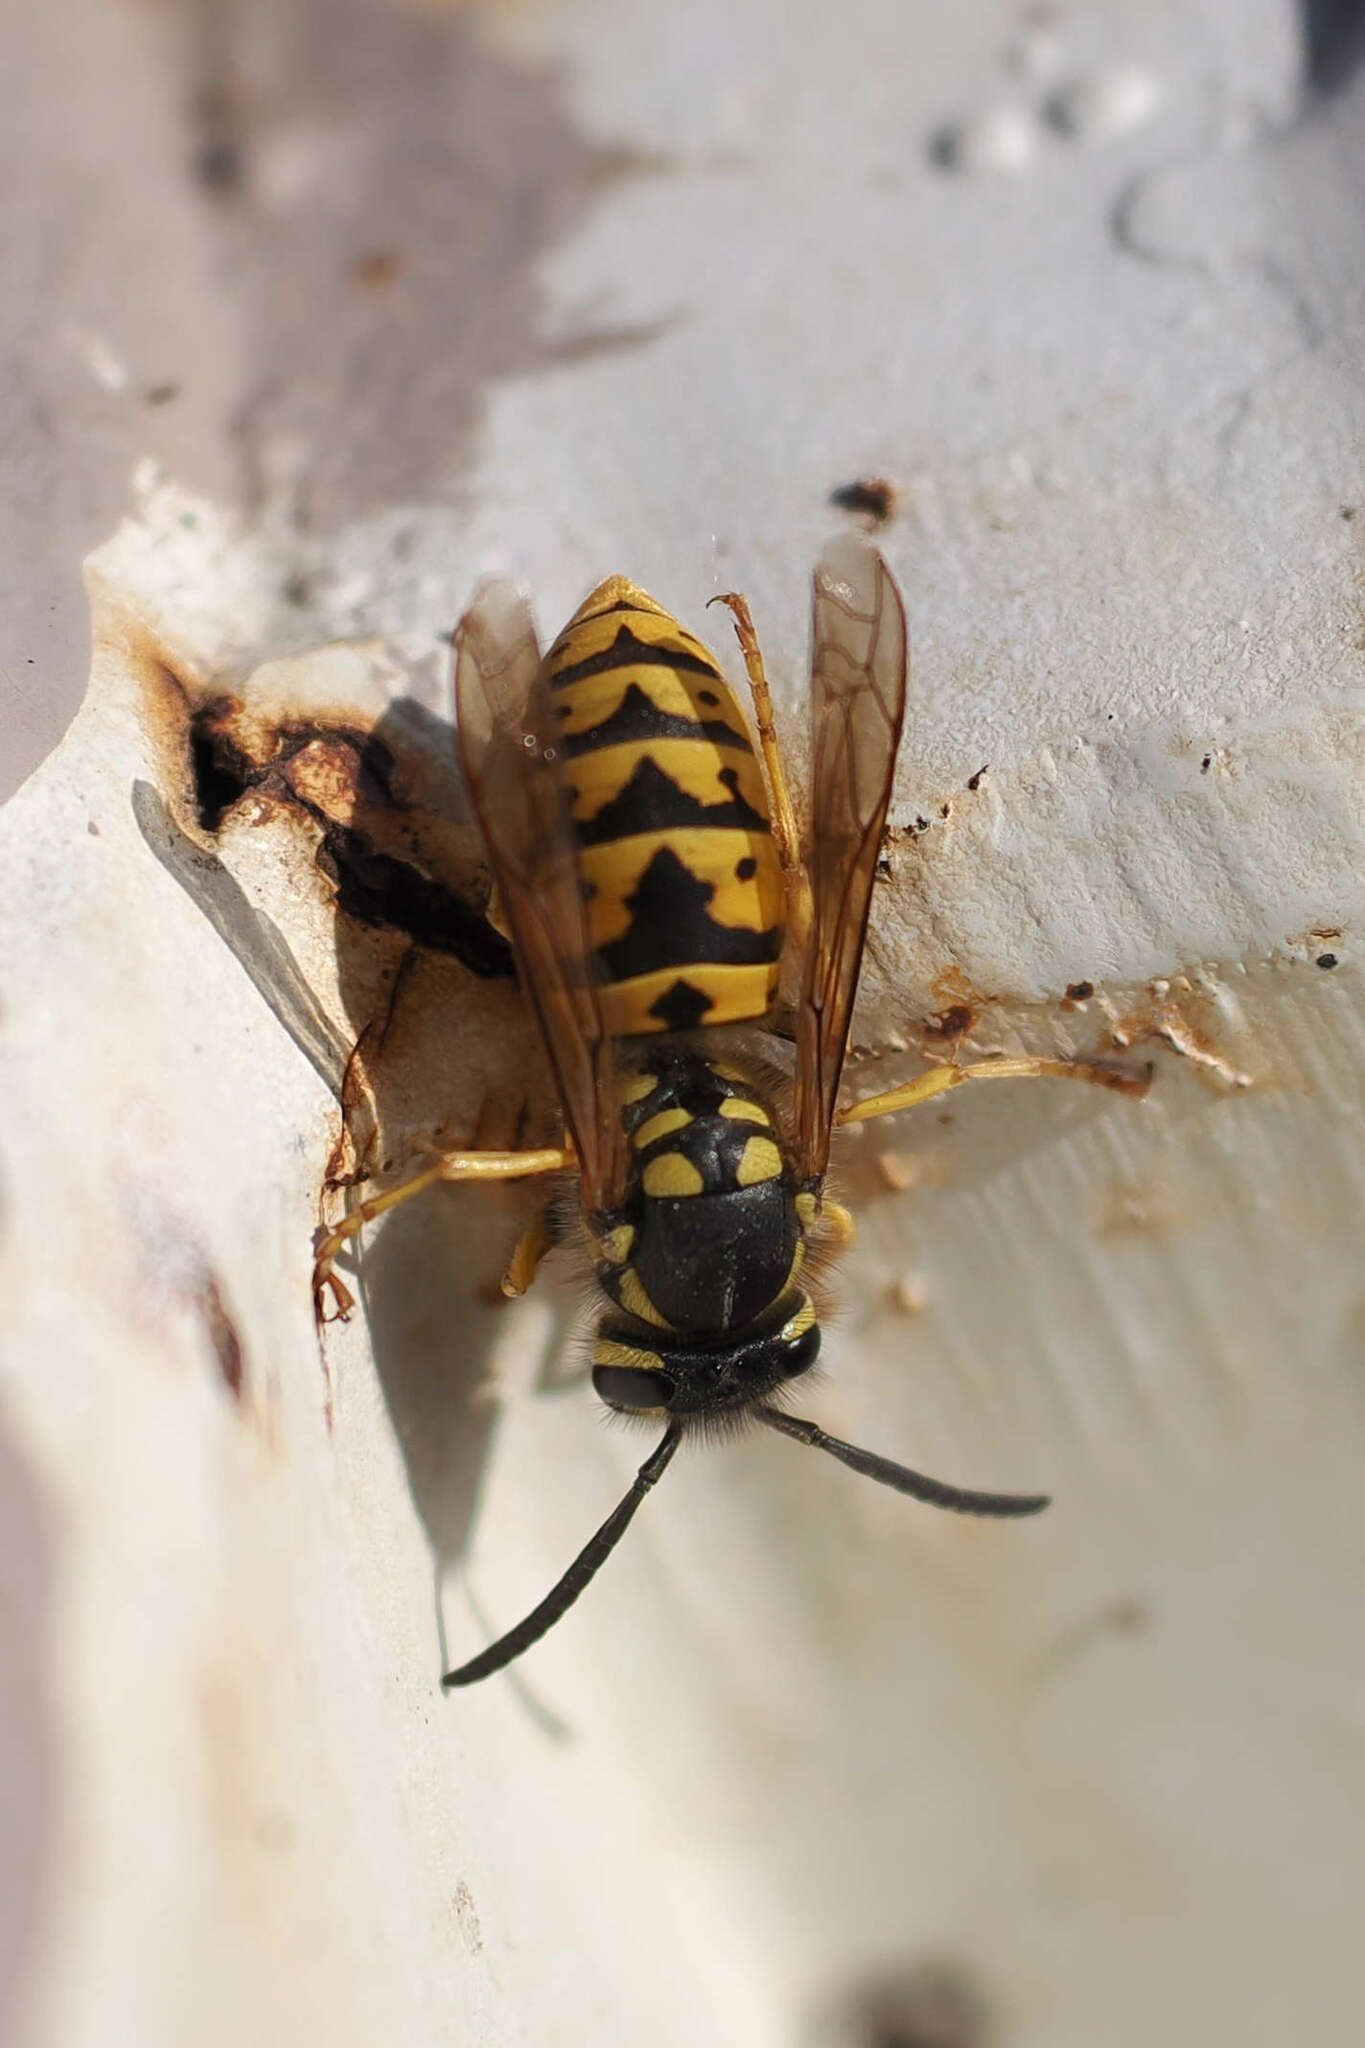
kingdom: Animalia
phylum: Arthropoda
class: Insecta
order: Hymenoptera
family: Vespidae
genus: Vespula
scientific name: Vespula germanica
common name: German wasp
